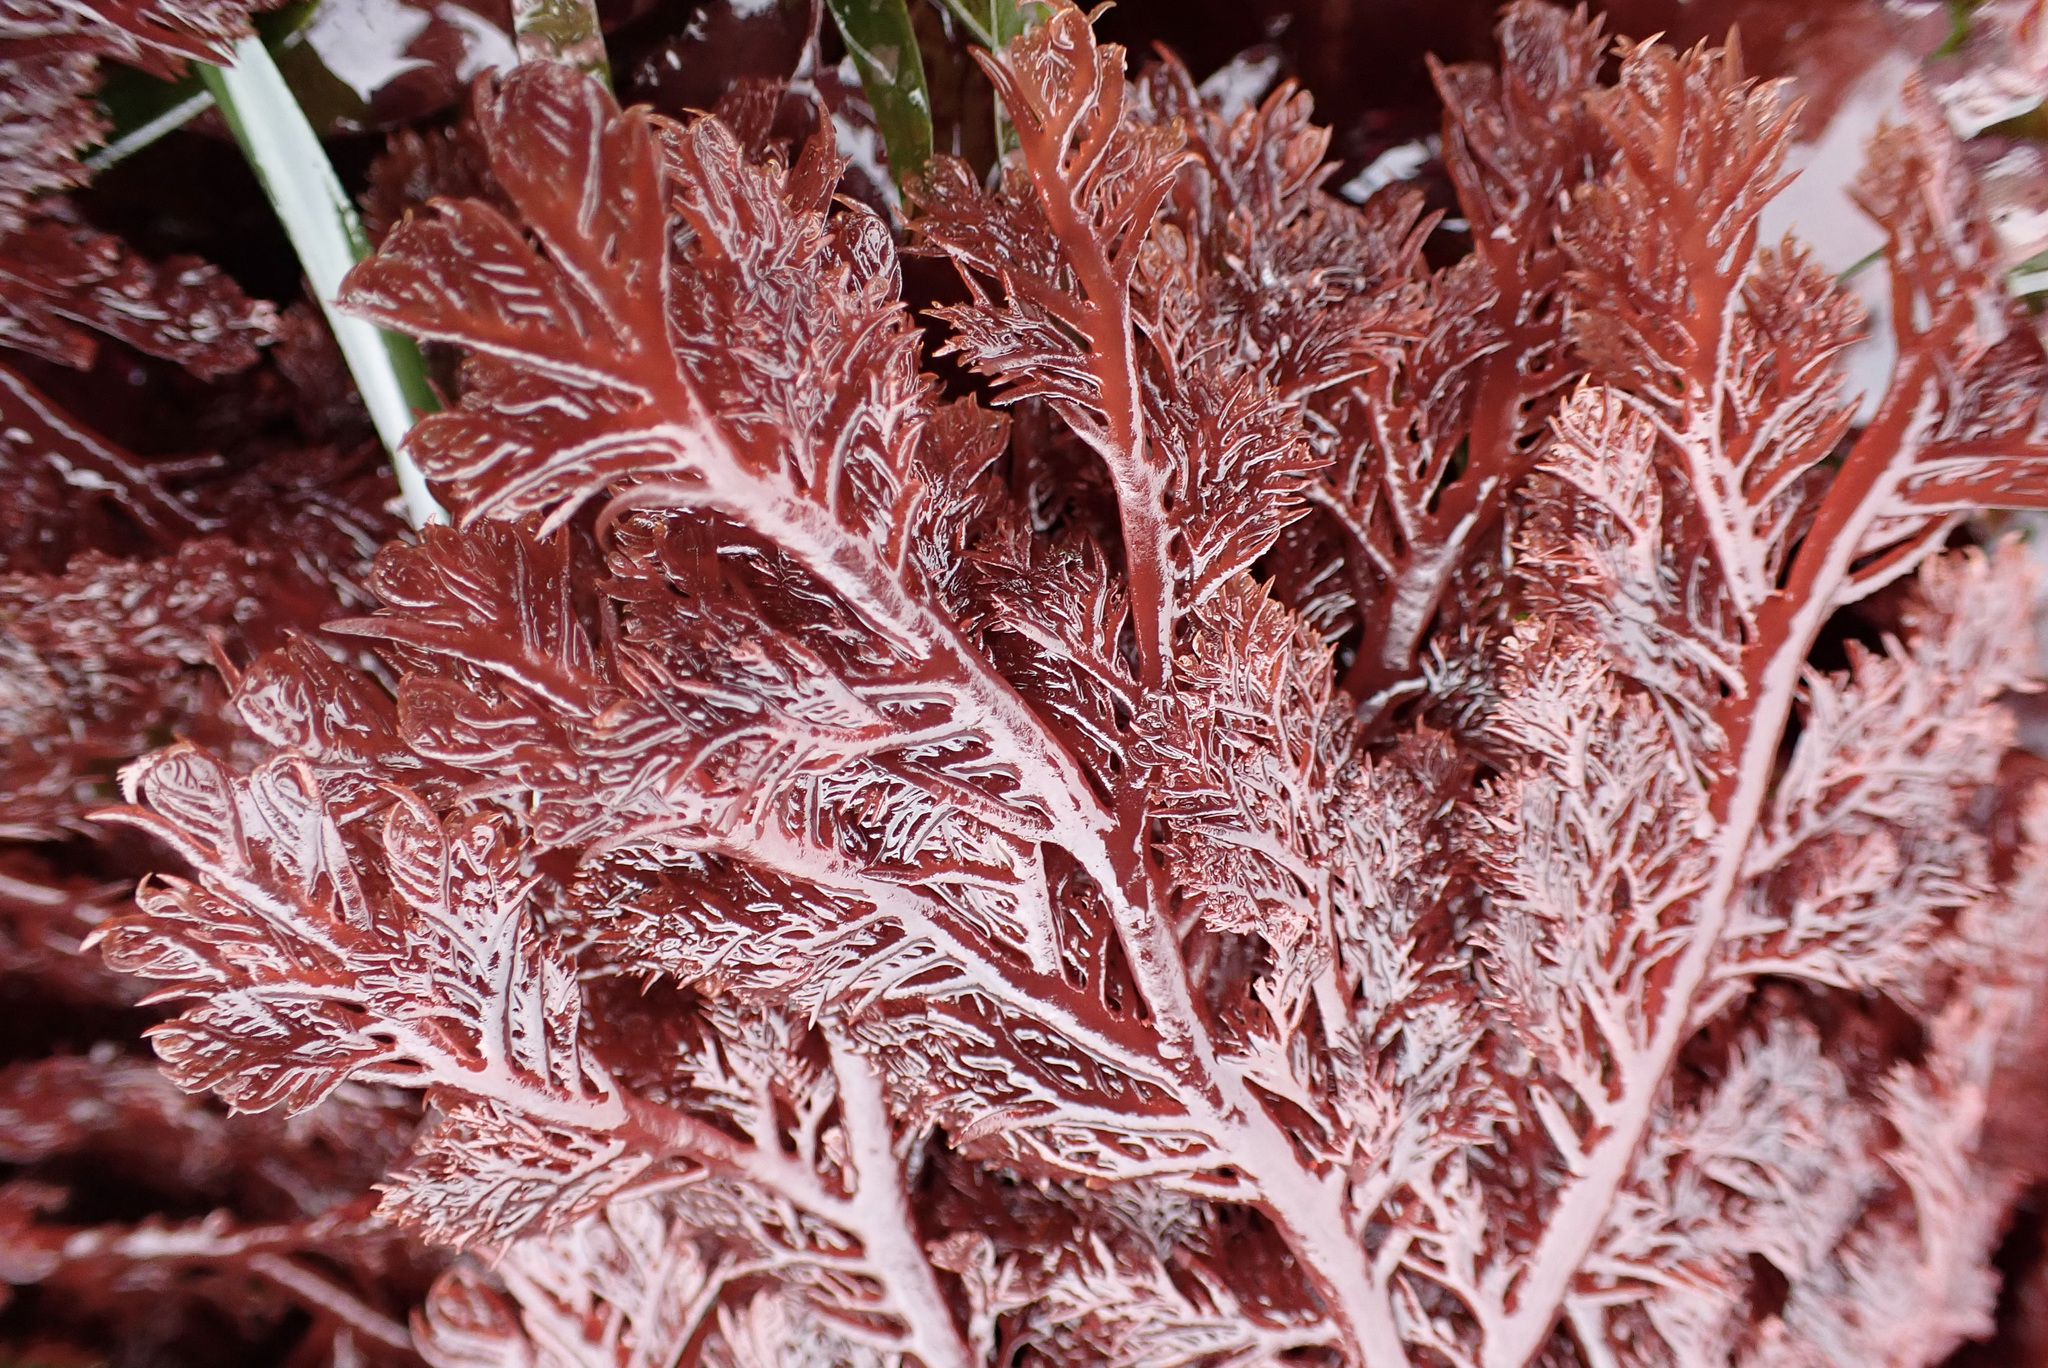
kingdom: Plantae
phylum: Rhodophyta
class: Florideophyceae
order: Plocamiales
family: Plocamiaceae
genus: Plocamium
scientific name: Plocamium cartilagineum
